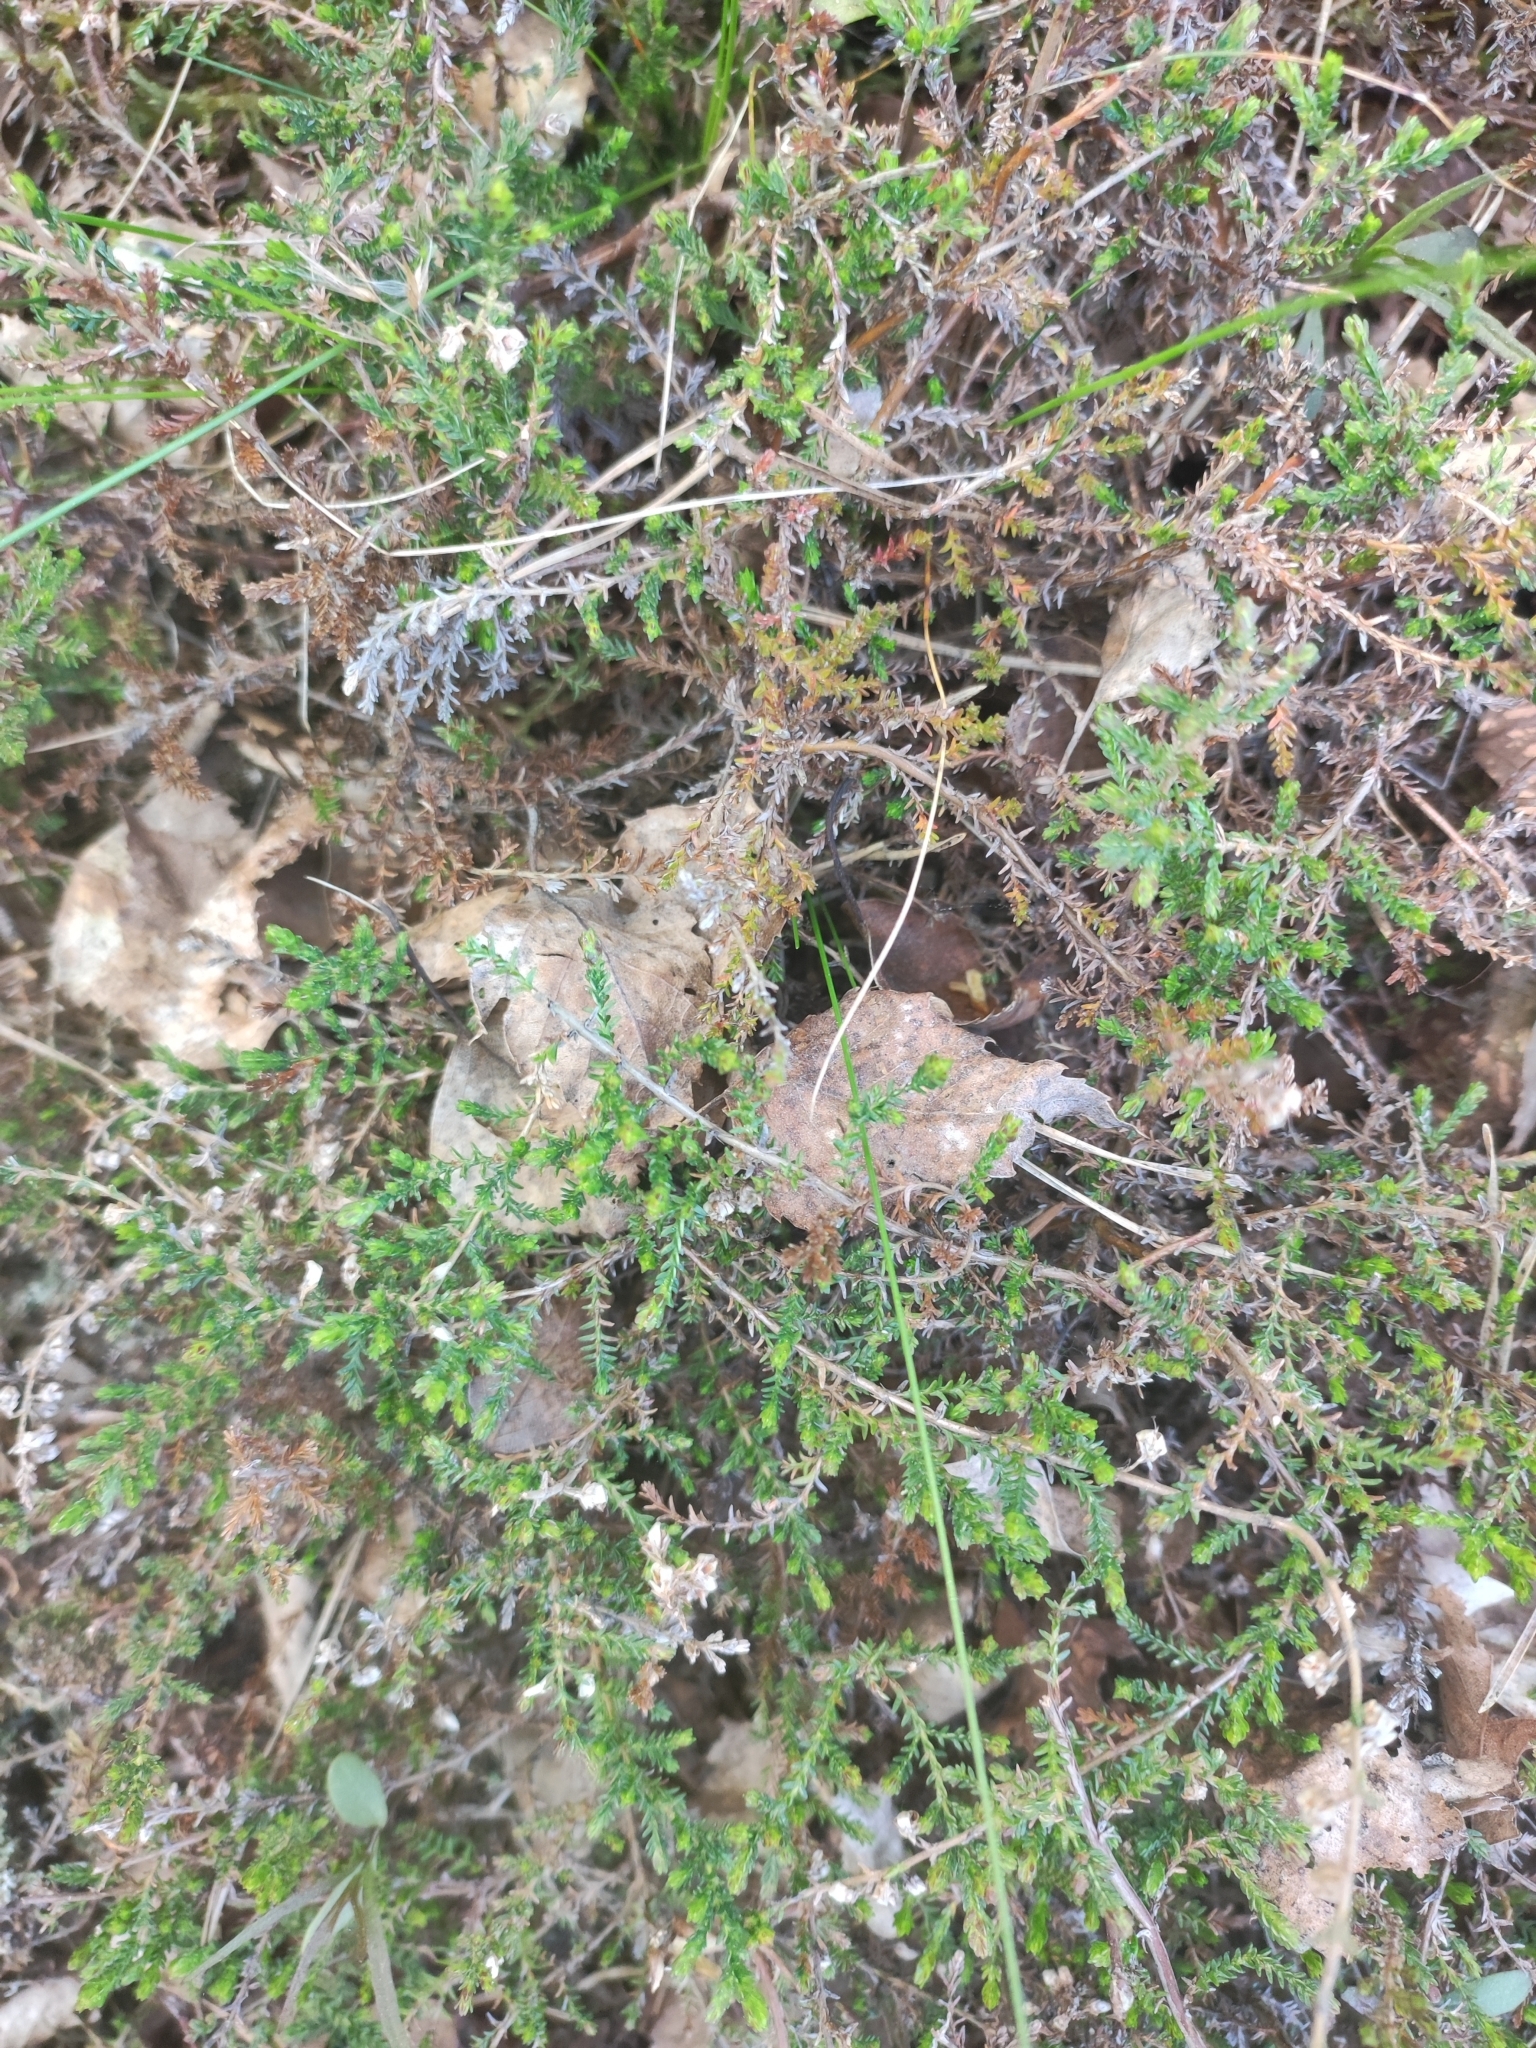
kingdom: Plantae
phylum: Tracheophyta
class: Magnoliopsida
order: Ericales
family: Ericaceae
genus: Calluna
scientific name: Calluna vulgaris
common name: Heather
